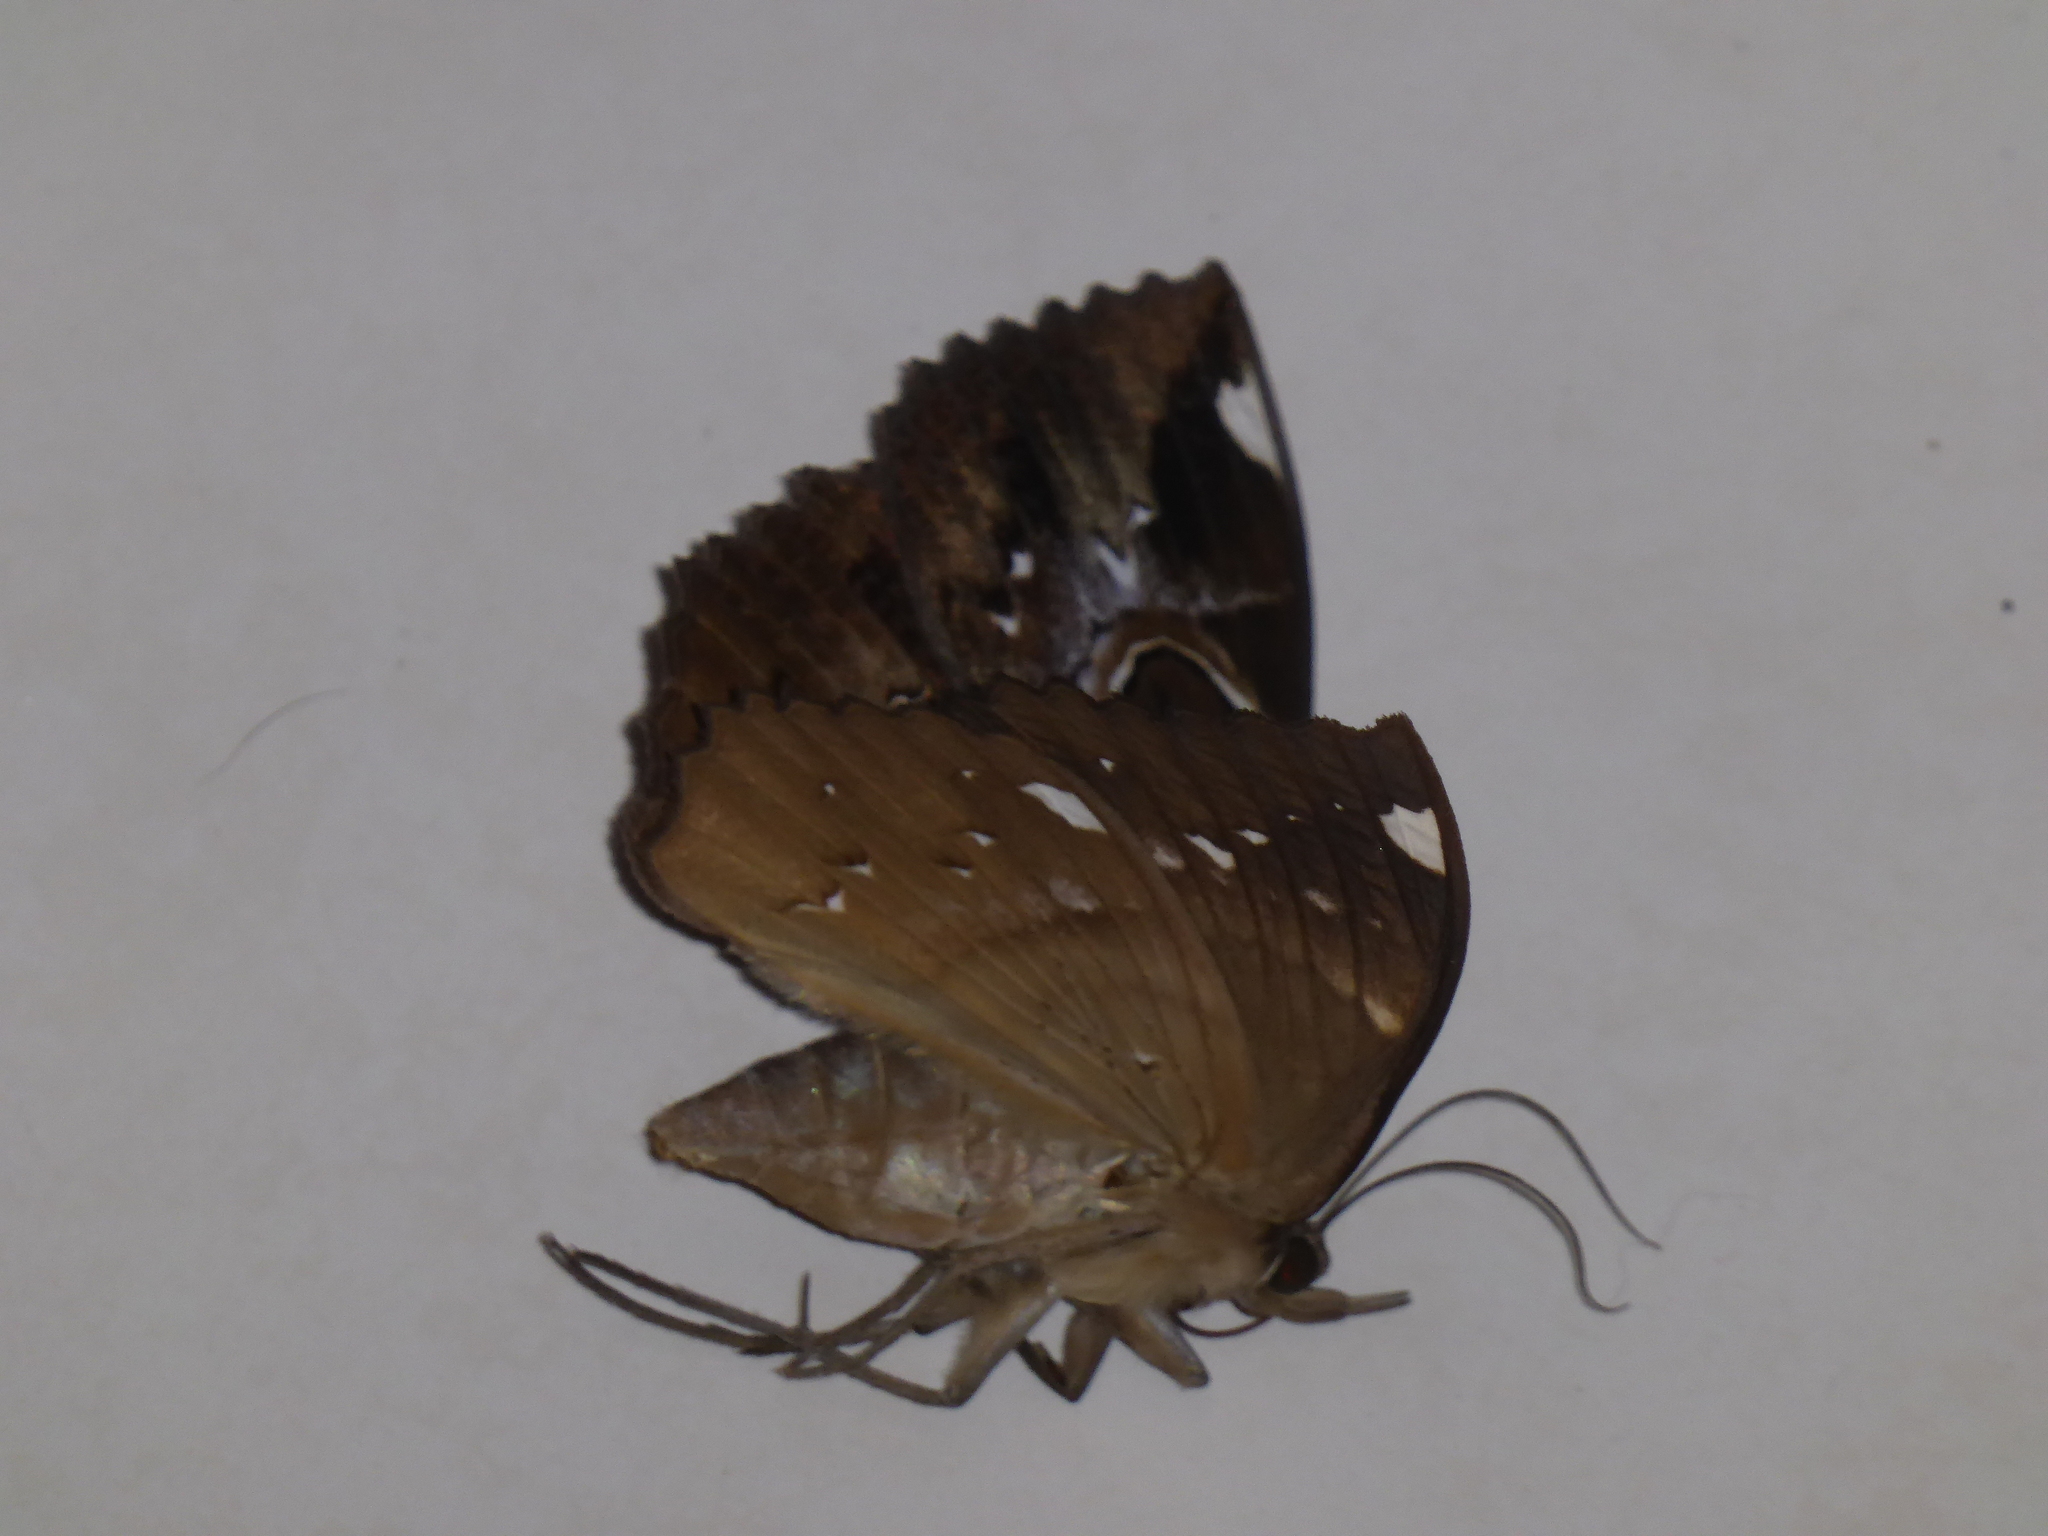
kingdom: Animalia
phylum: Arthropoda
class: Insecta
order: Lepidoptera
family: Erebidae
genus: Erebus
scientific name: Erebus ephesperis
